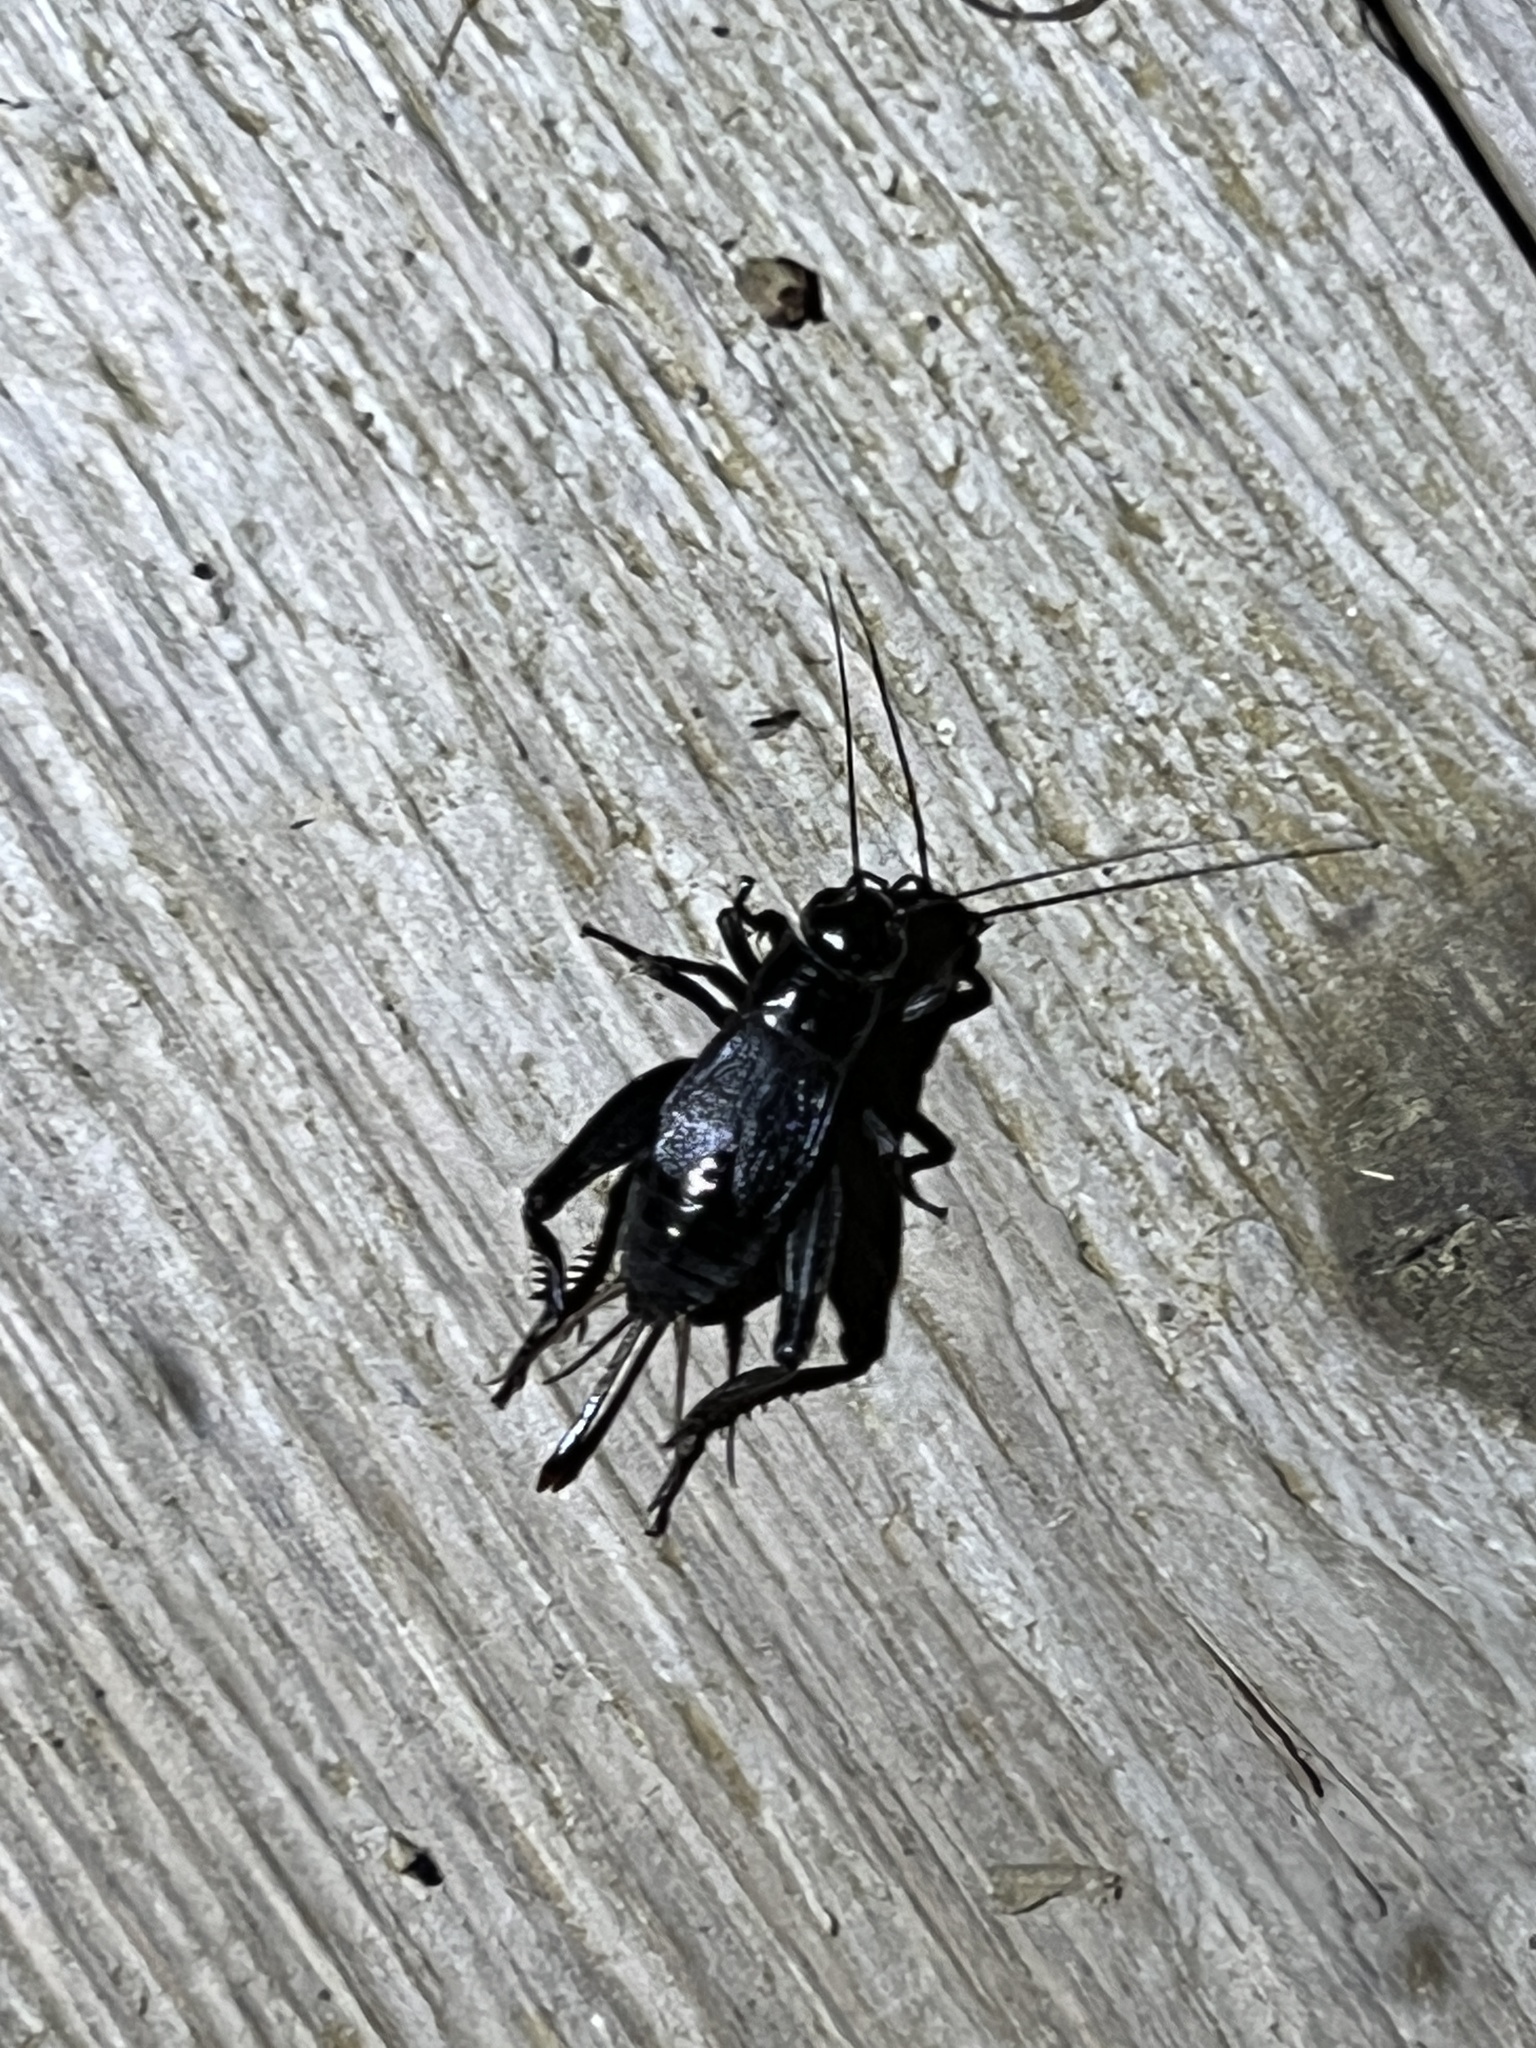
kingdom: Animalia
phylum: Arthropoda
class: Insecta
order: Orthoptera
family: Gryllidae
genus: Gryllus
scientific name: Gryllus veletis
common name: Spring field cricket
